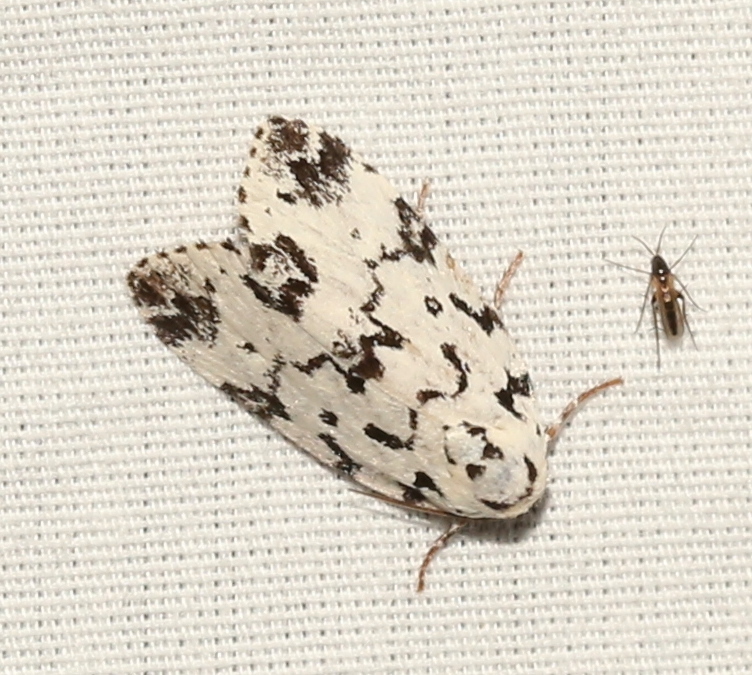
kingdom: Animalia
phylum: Arthropoda
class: Insecta
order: Lepidoptera
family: Noctuidae
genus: Polygrammate
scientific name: Polygrammate hebraeicum
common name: Hebrew moth
